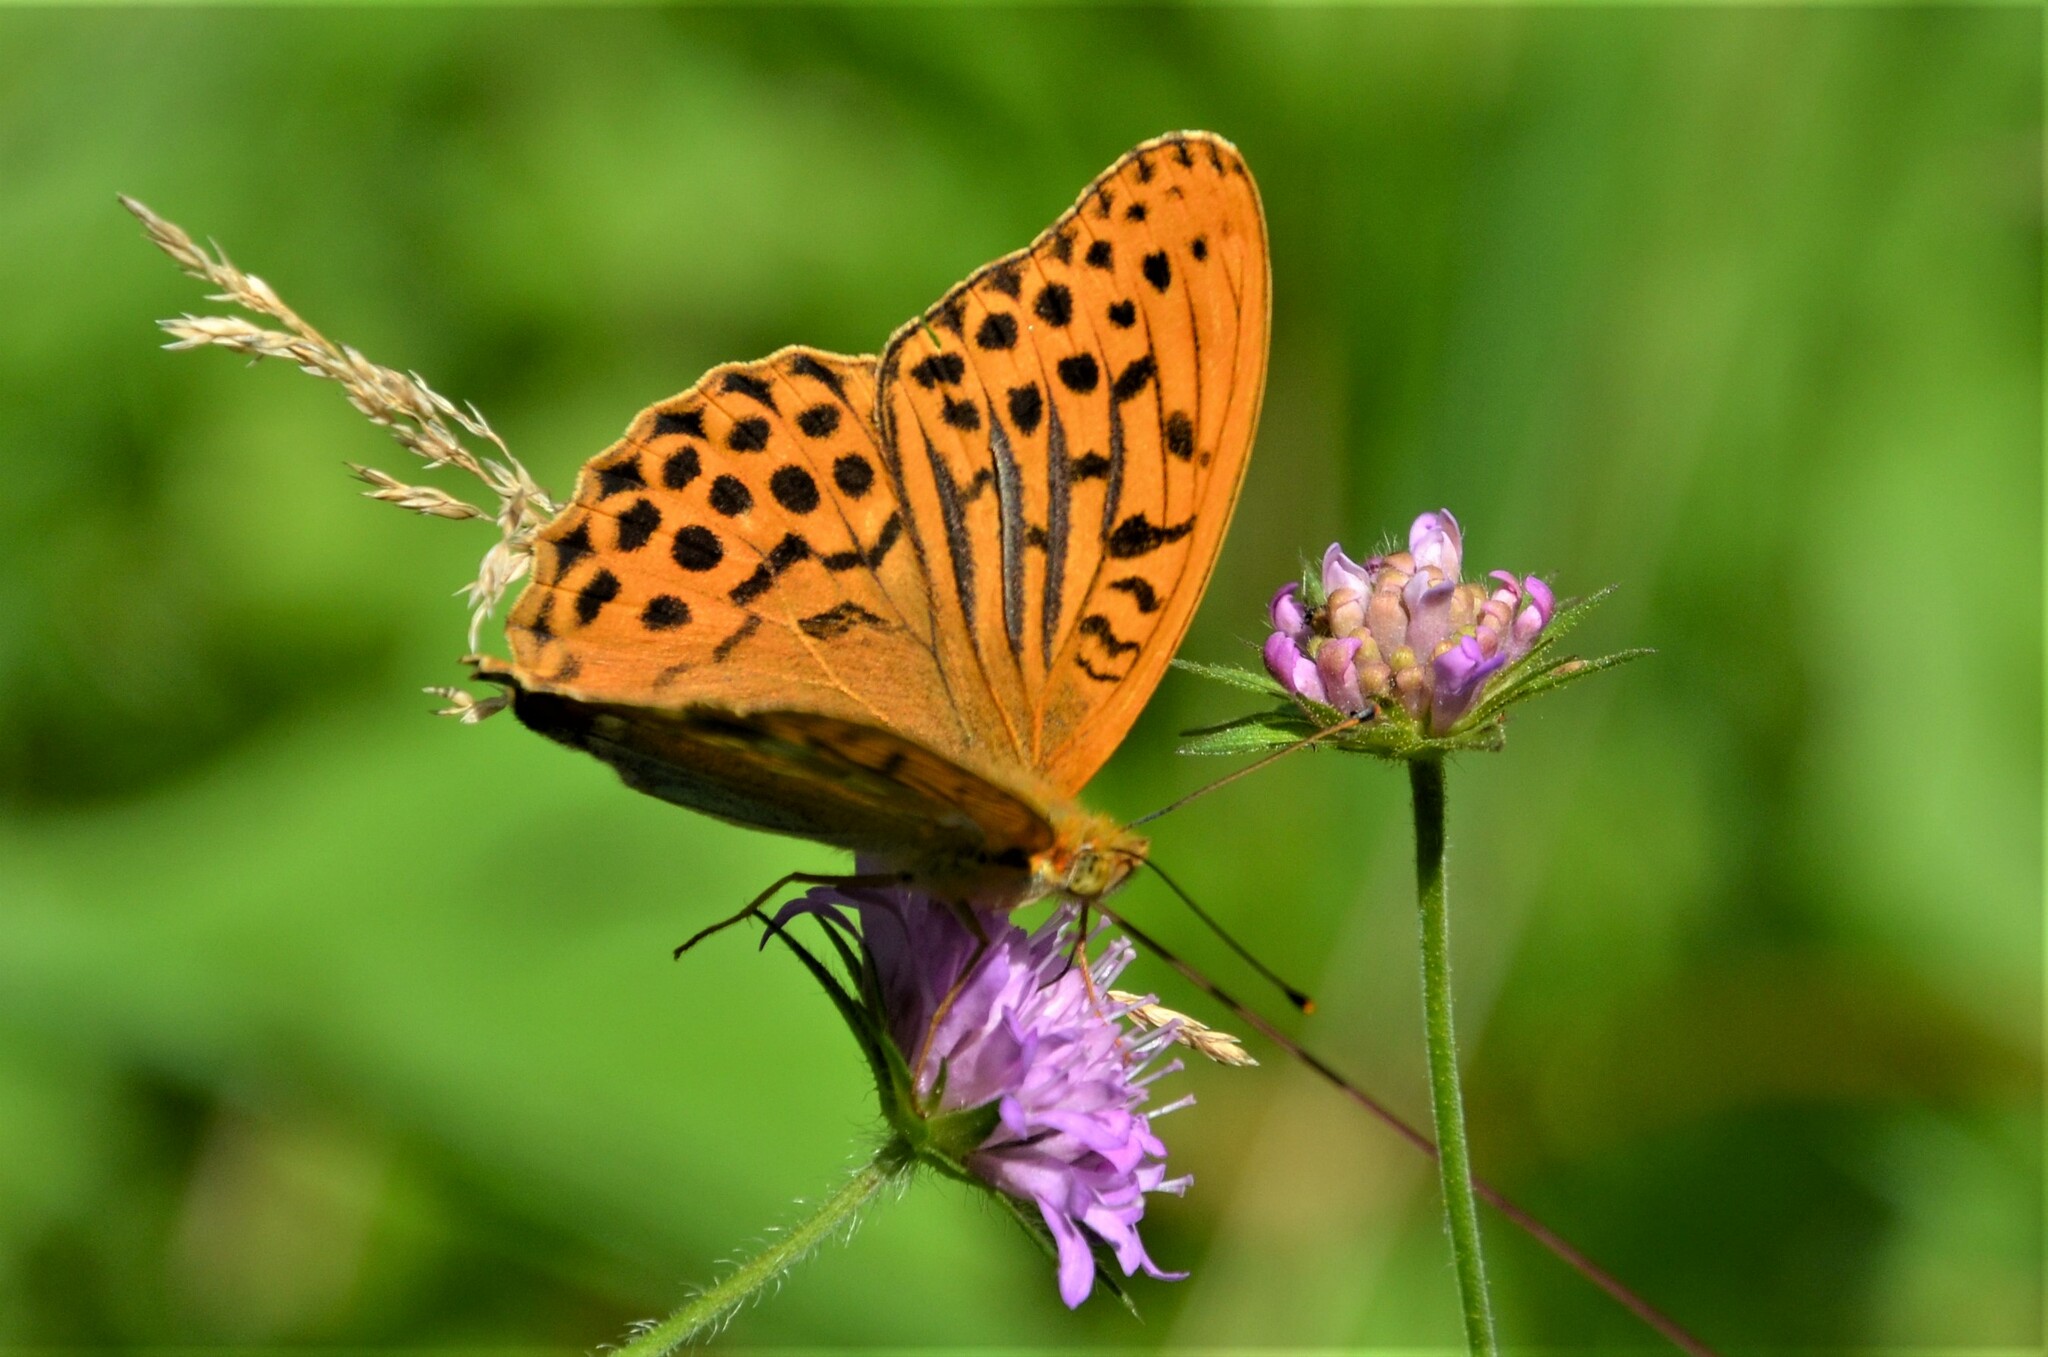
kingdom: Animalia
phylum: Arthropoda
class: Insecta
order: Lepidoptera
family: Nymphalidae
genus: Argynnis
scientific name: Argynnis paphia
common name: Silver-washed fritillary
